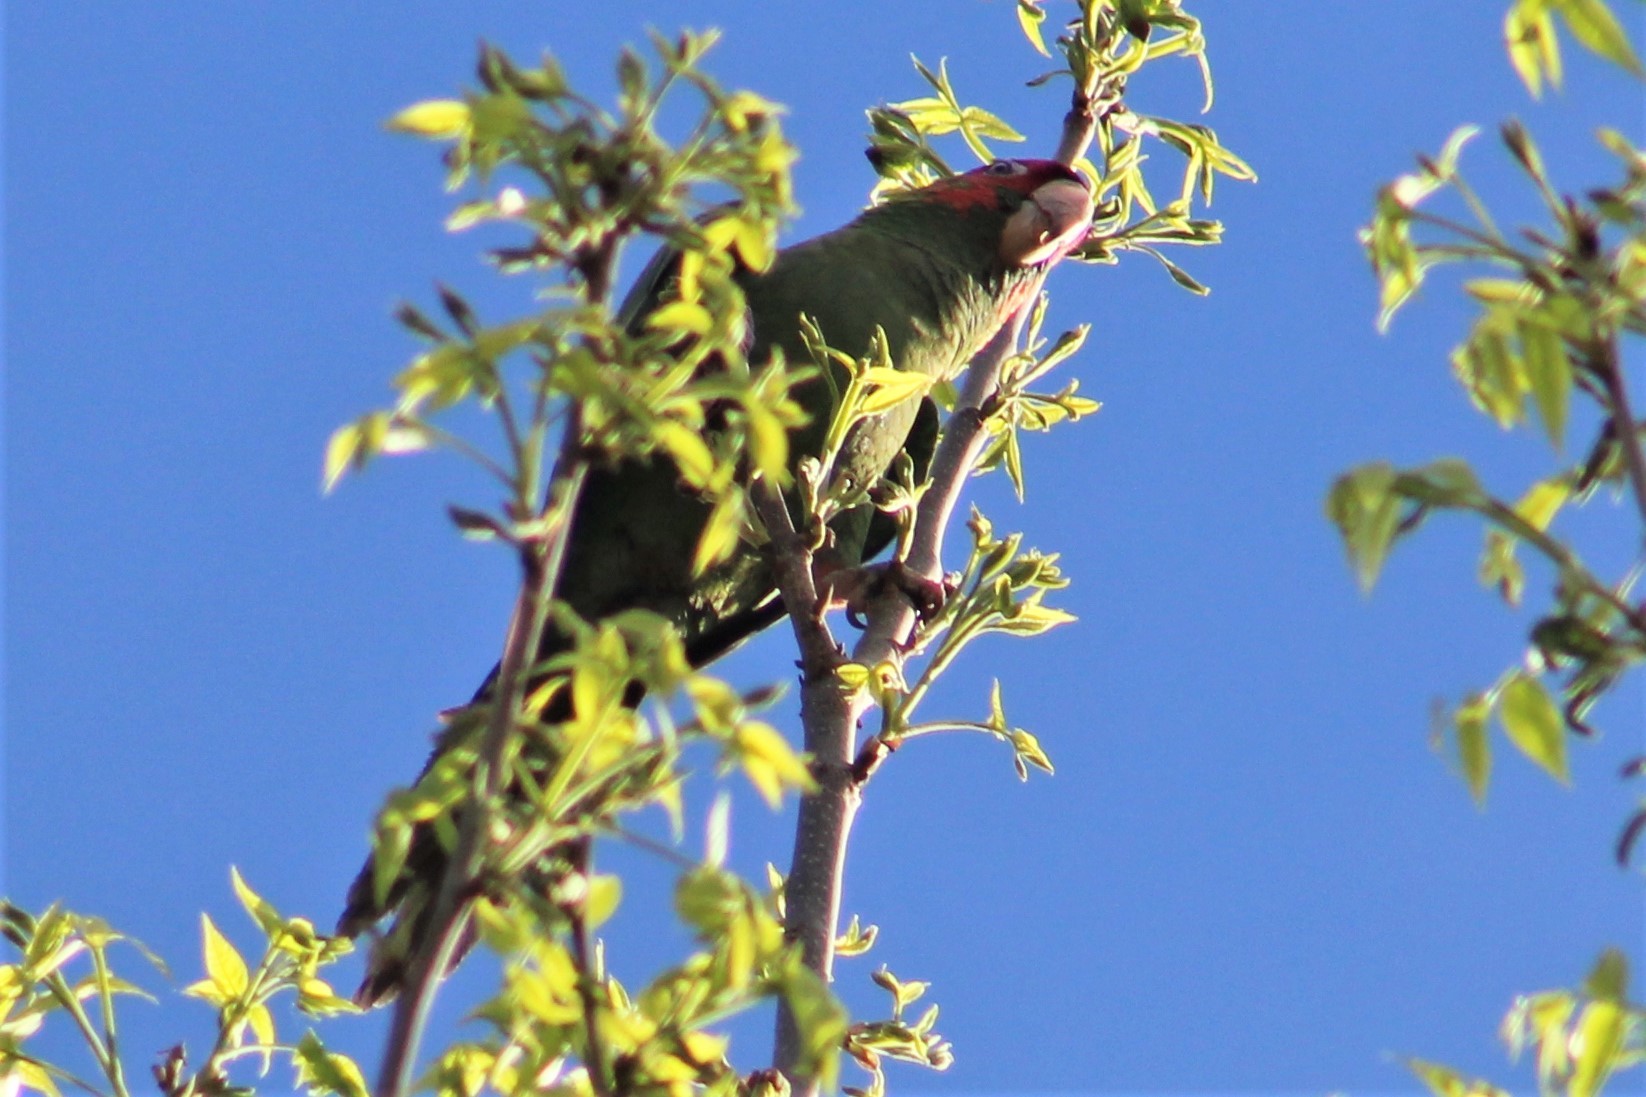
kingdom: Animalia
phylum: Chordata
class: Aves
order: Psittaciformes
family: Psittacidae
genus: Aratinga
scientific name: Aratinga mitrata
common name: Mitred parakeet
